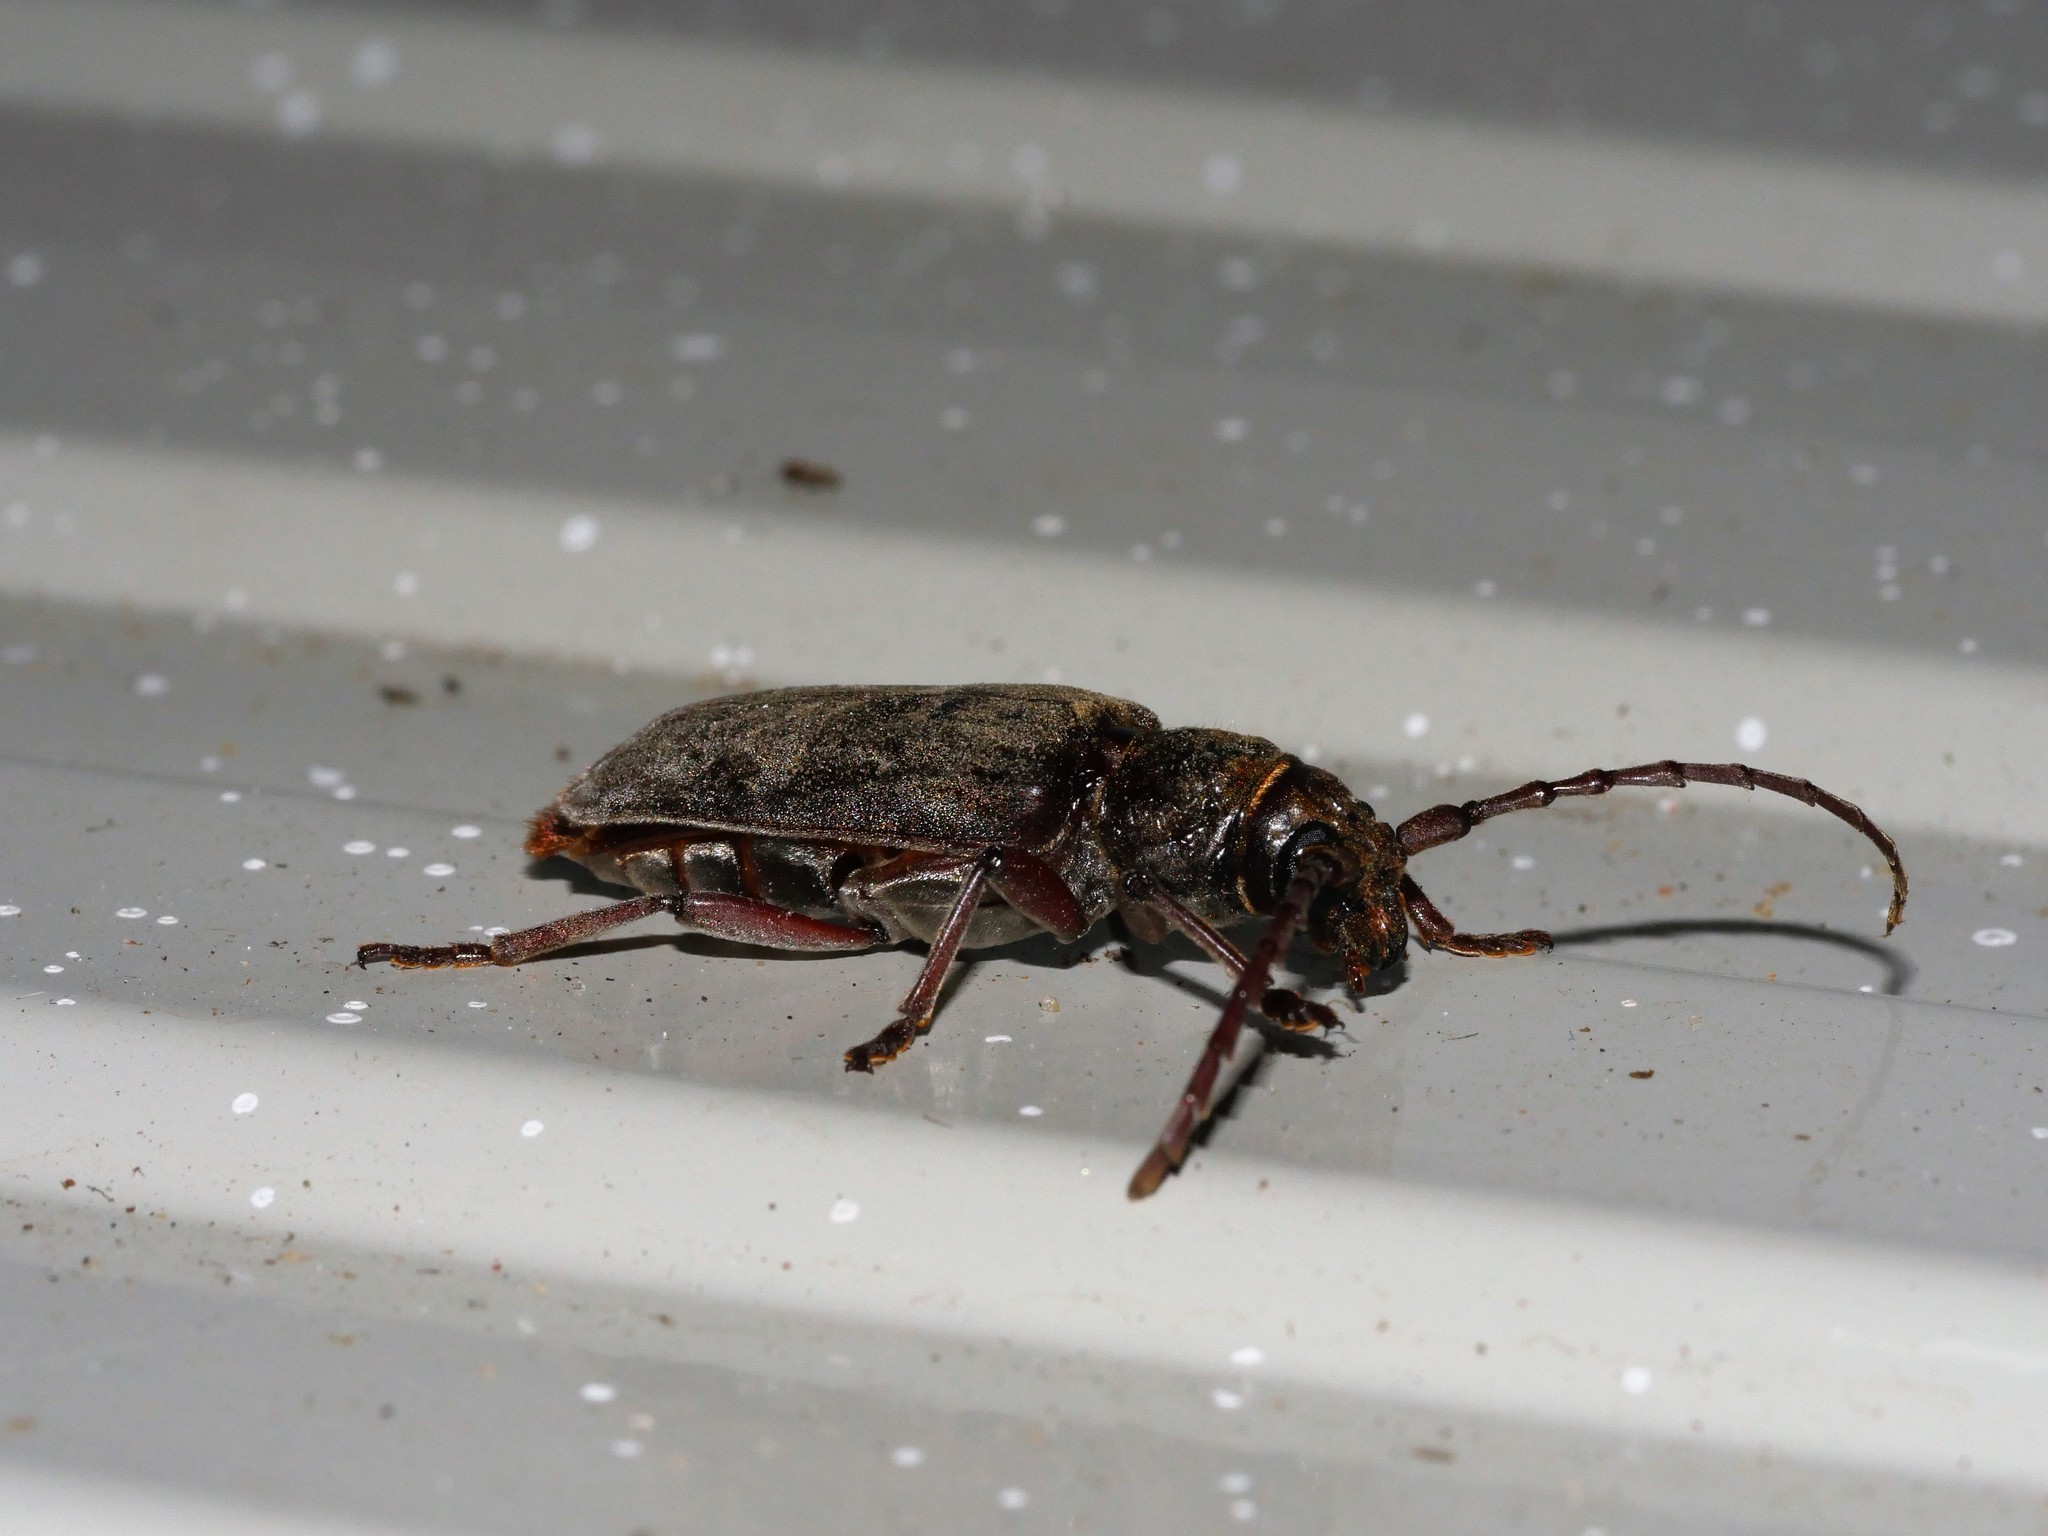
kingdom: Animalia
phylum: Arthropoda
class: Insecta
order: Coleoptera
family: Cerambycidae
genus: Taurotagus
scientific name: Taurotagus impressus
